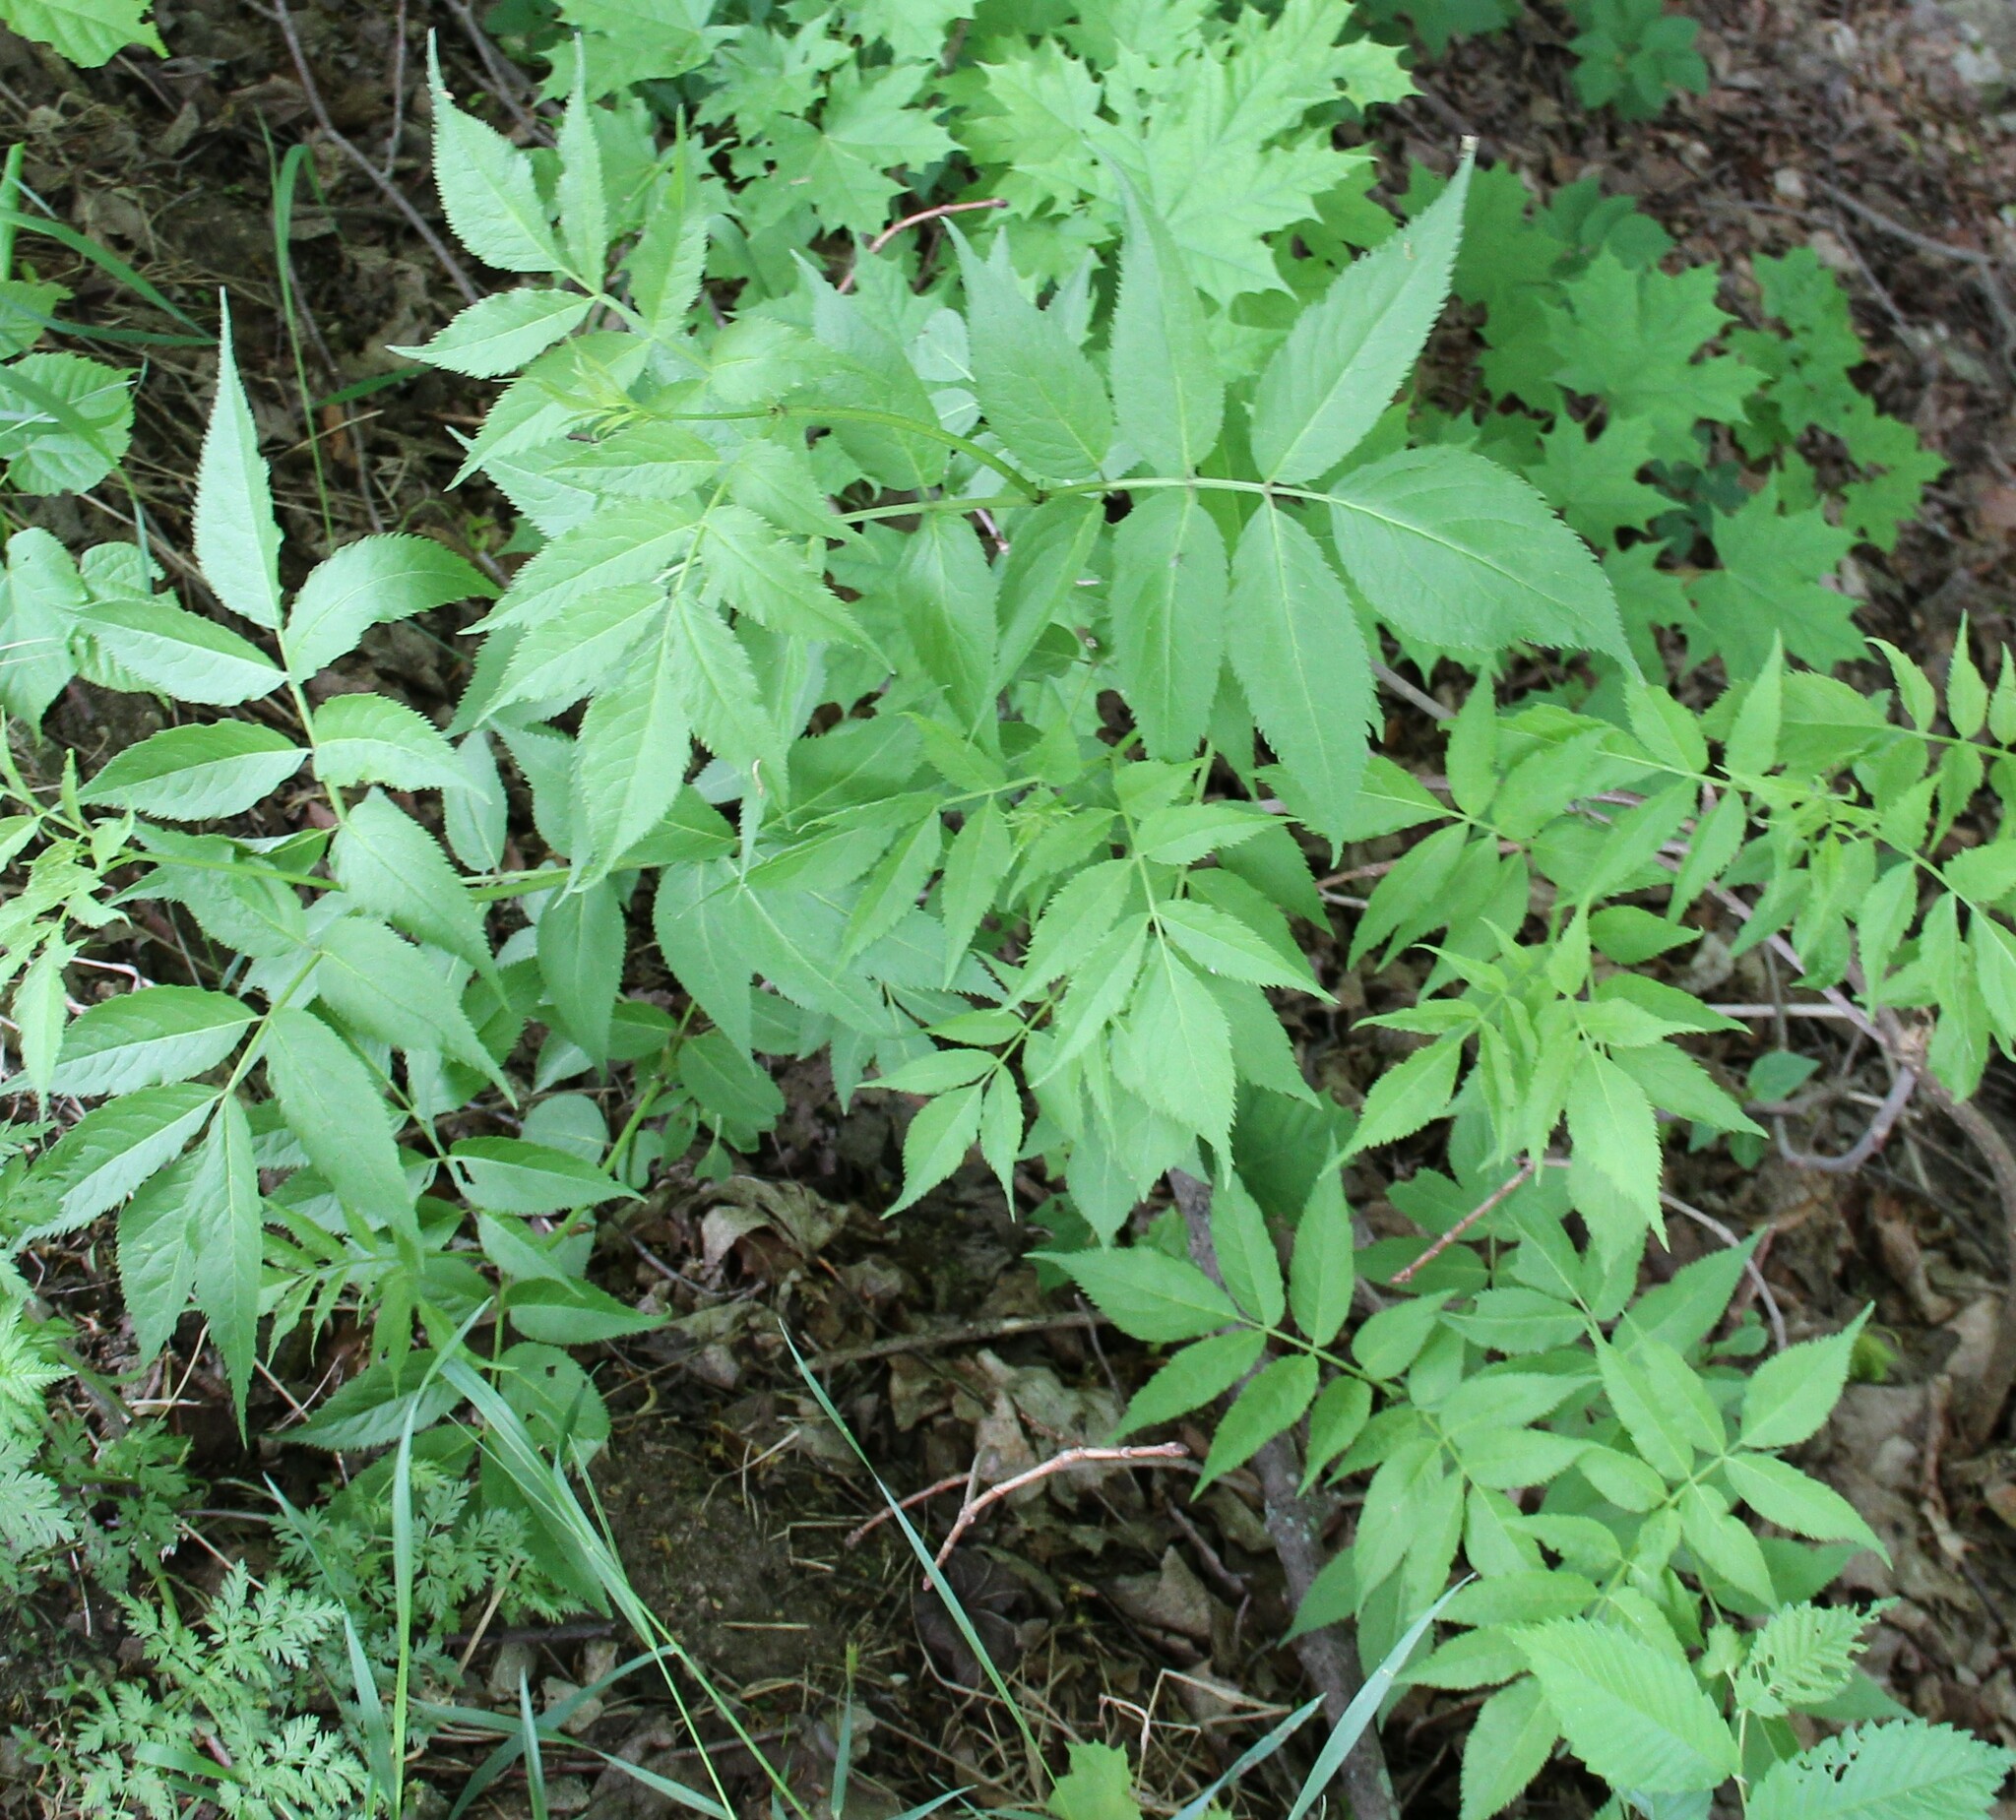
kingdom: Plantae
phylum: Tracheophyta
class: Magnoliopsida
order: Dipsacales
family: Viburnaceae
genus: Sambucus
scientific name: Sambucus racemosa
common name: Red-berried elder
